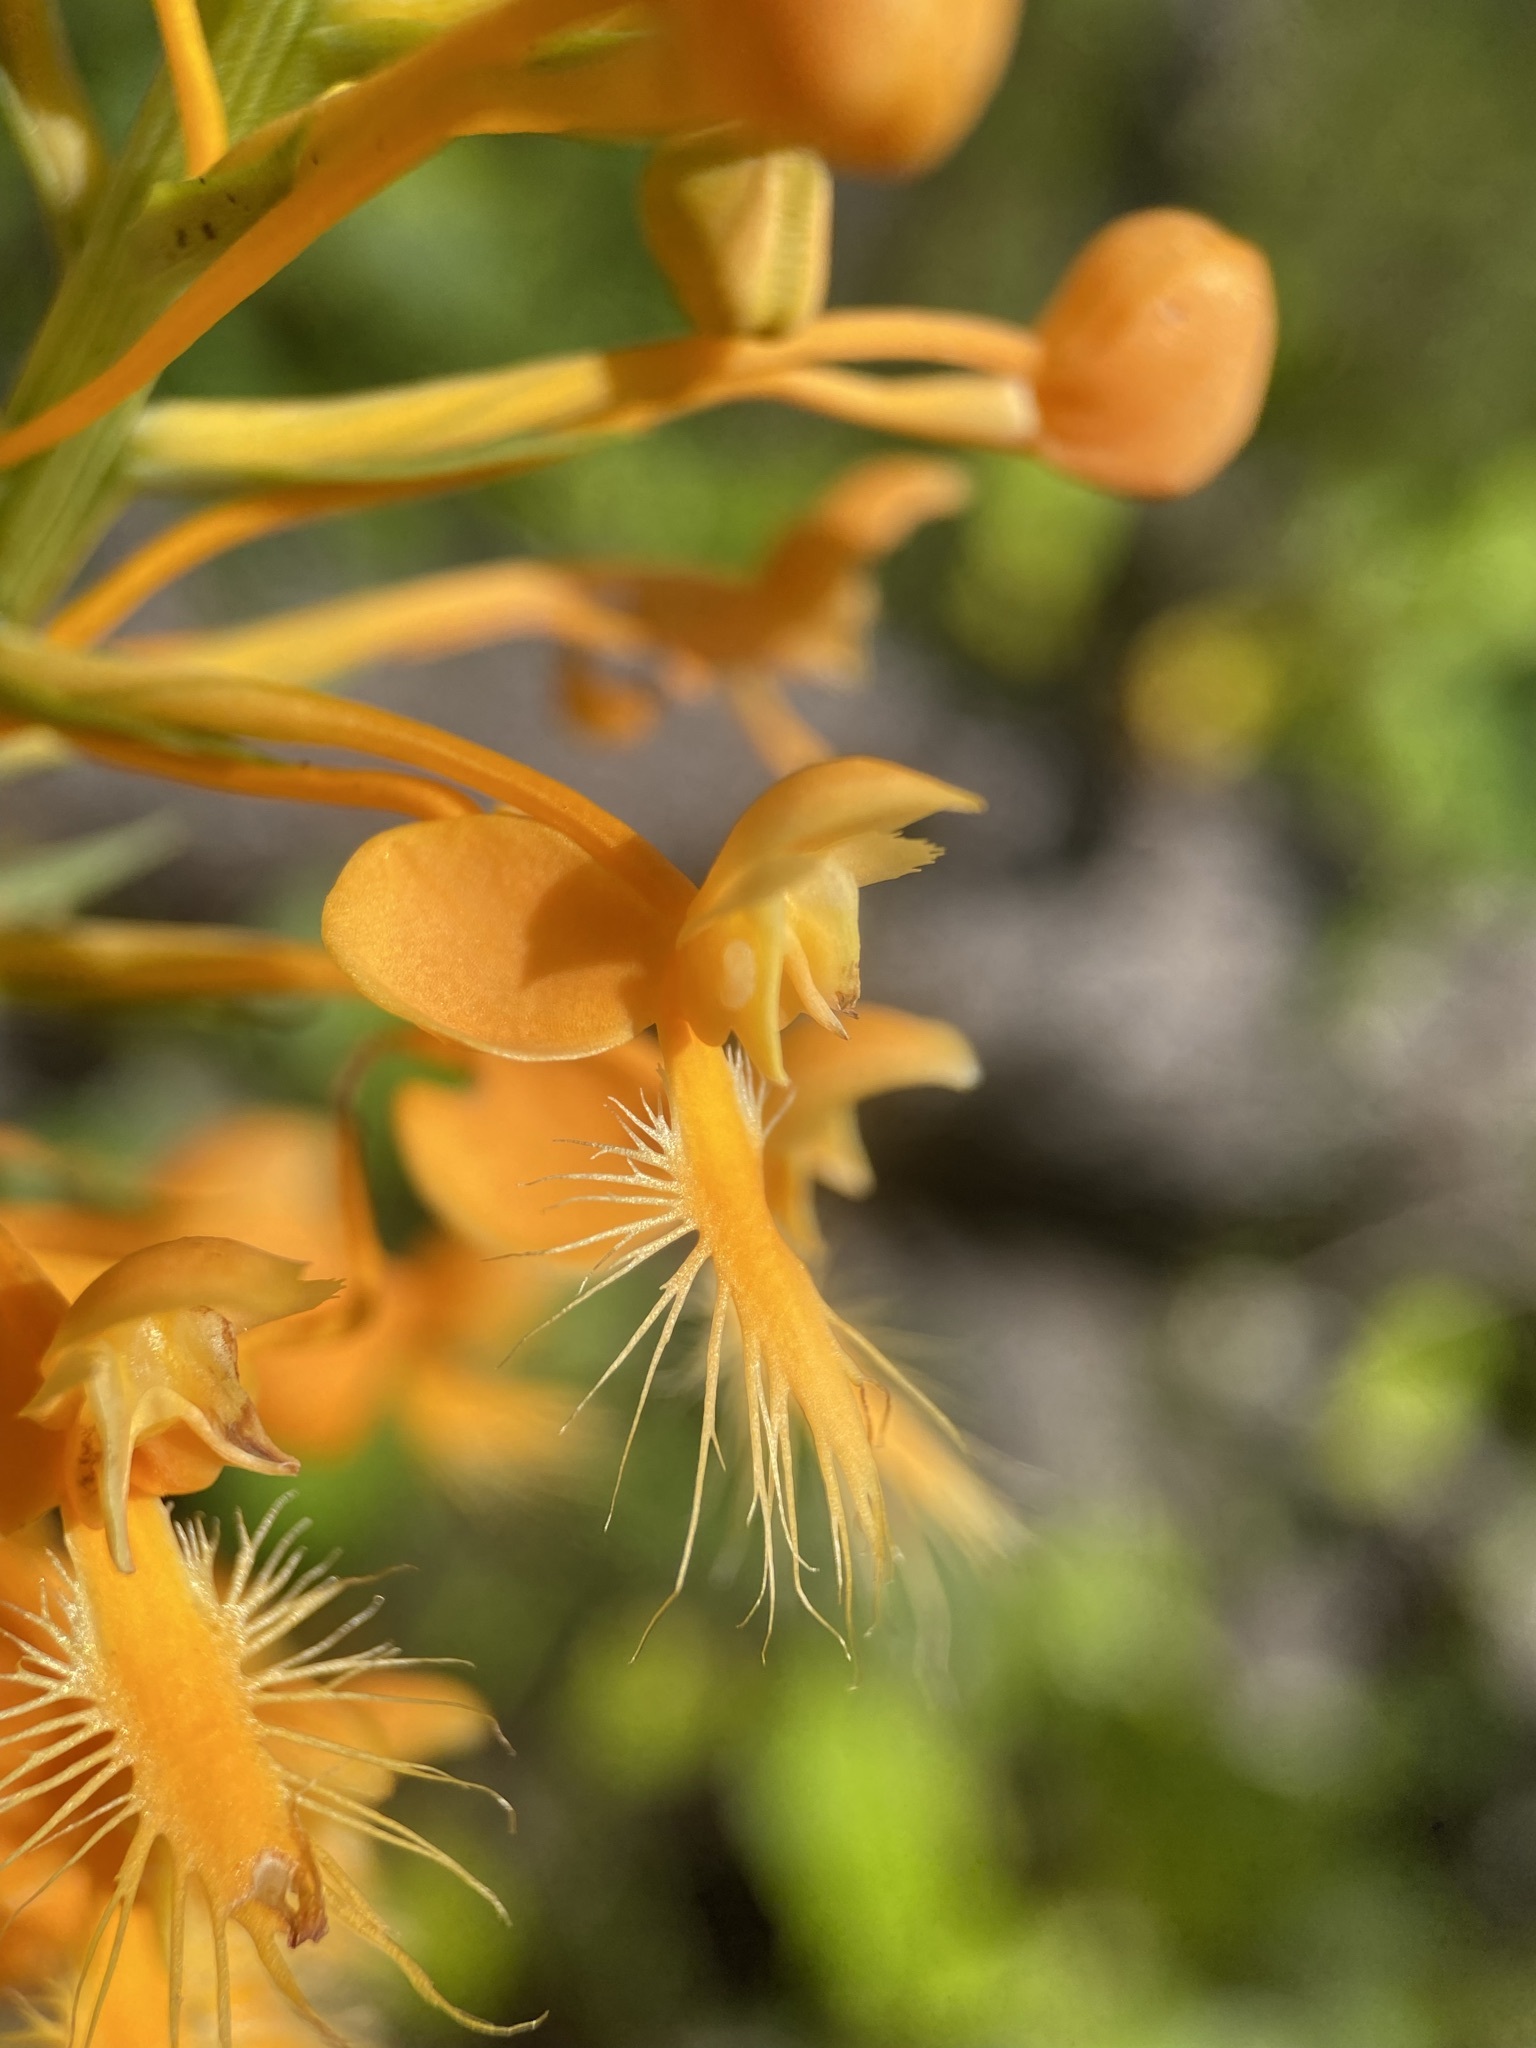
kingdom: Plantae
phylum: Tracheophyta
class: Liliopsida
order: Asparagales
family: Orchidaceae
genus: Platanthera
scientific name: Platanthera ciliaris
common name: Yellow fringed orchid
